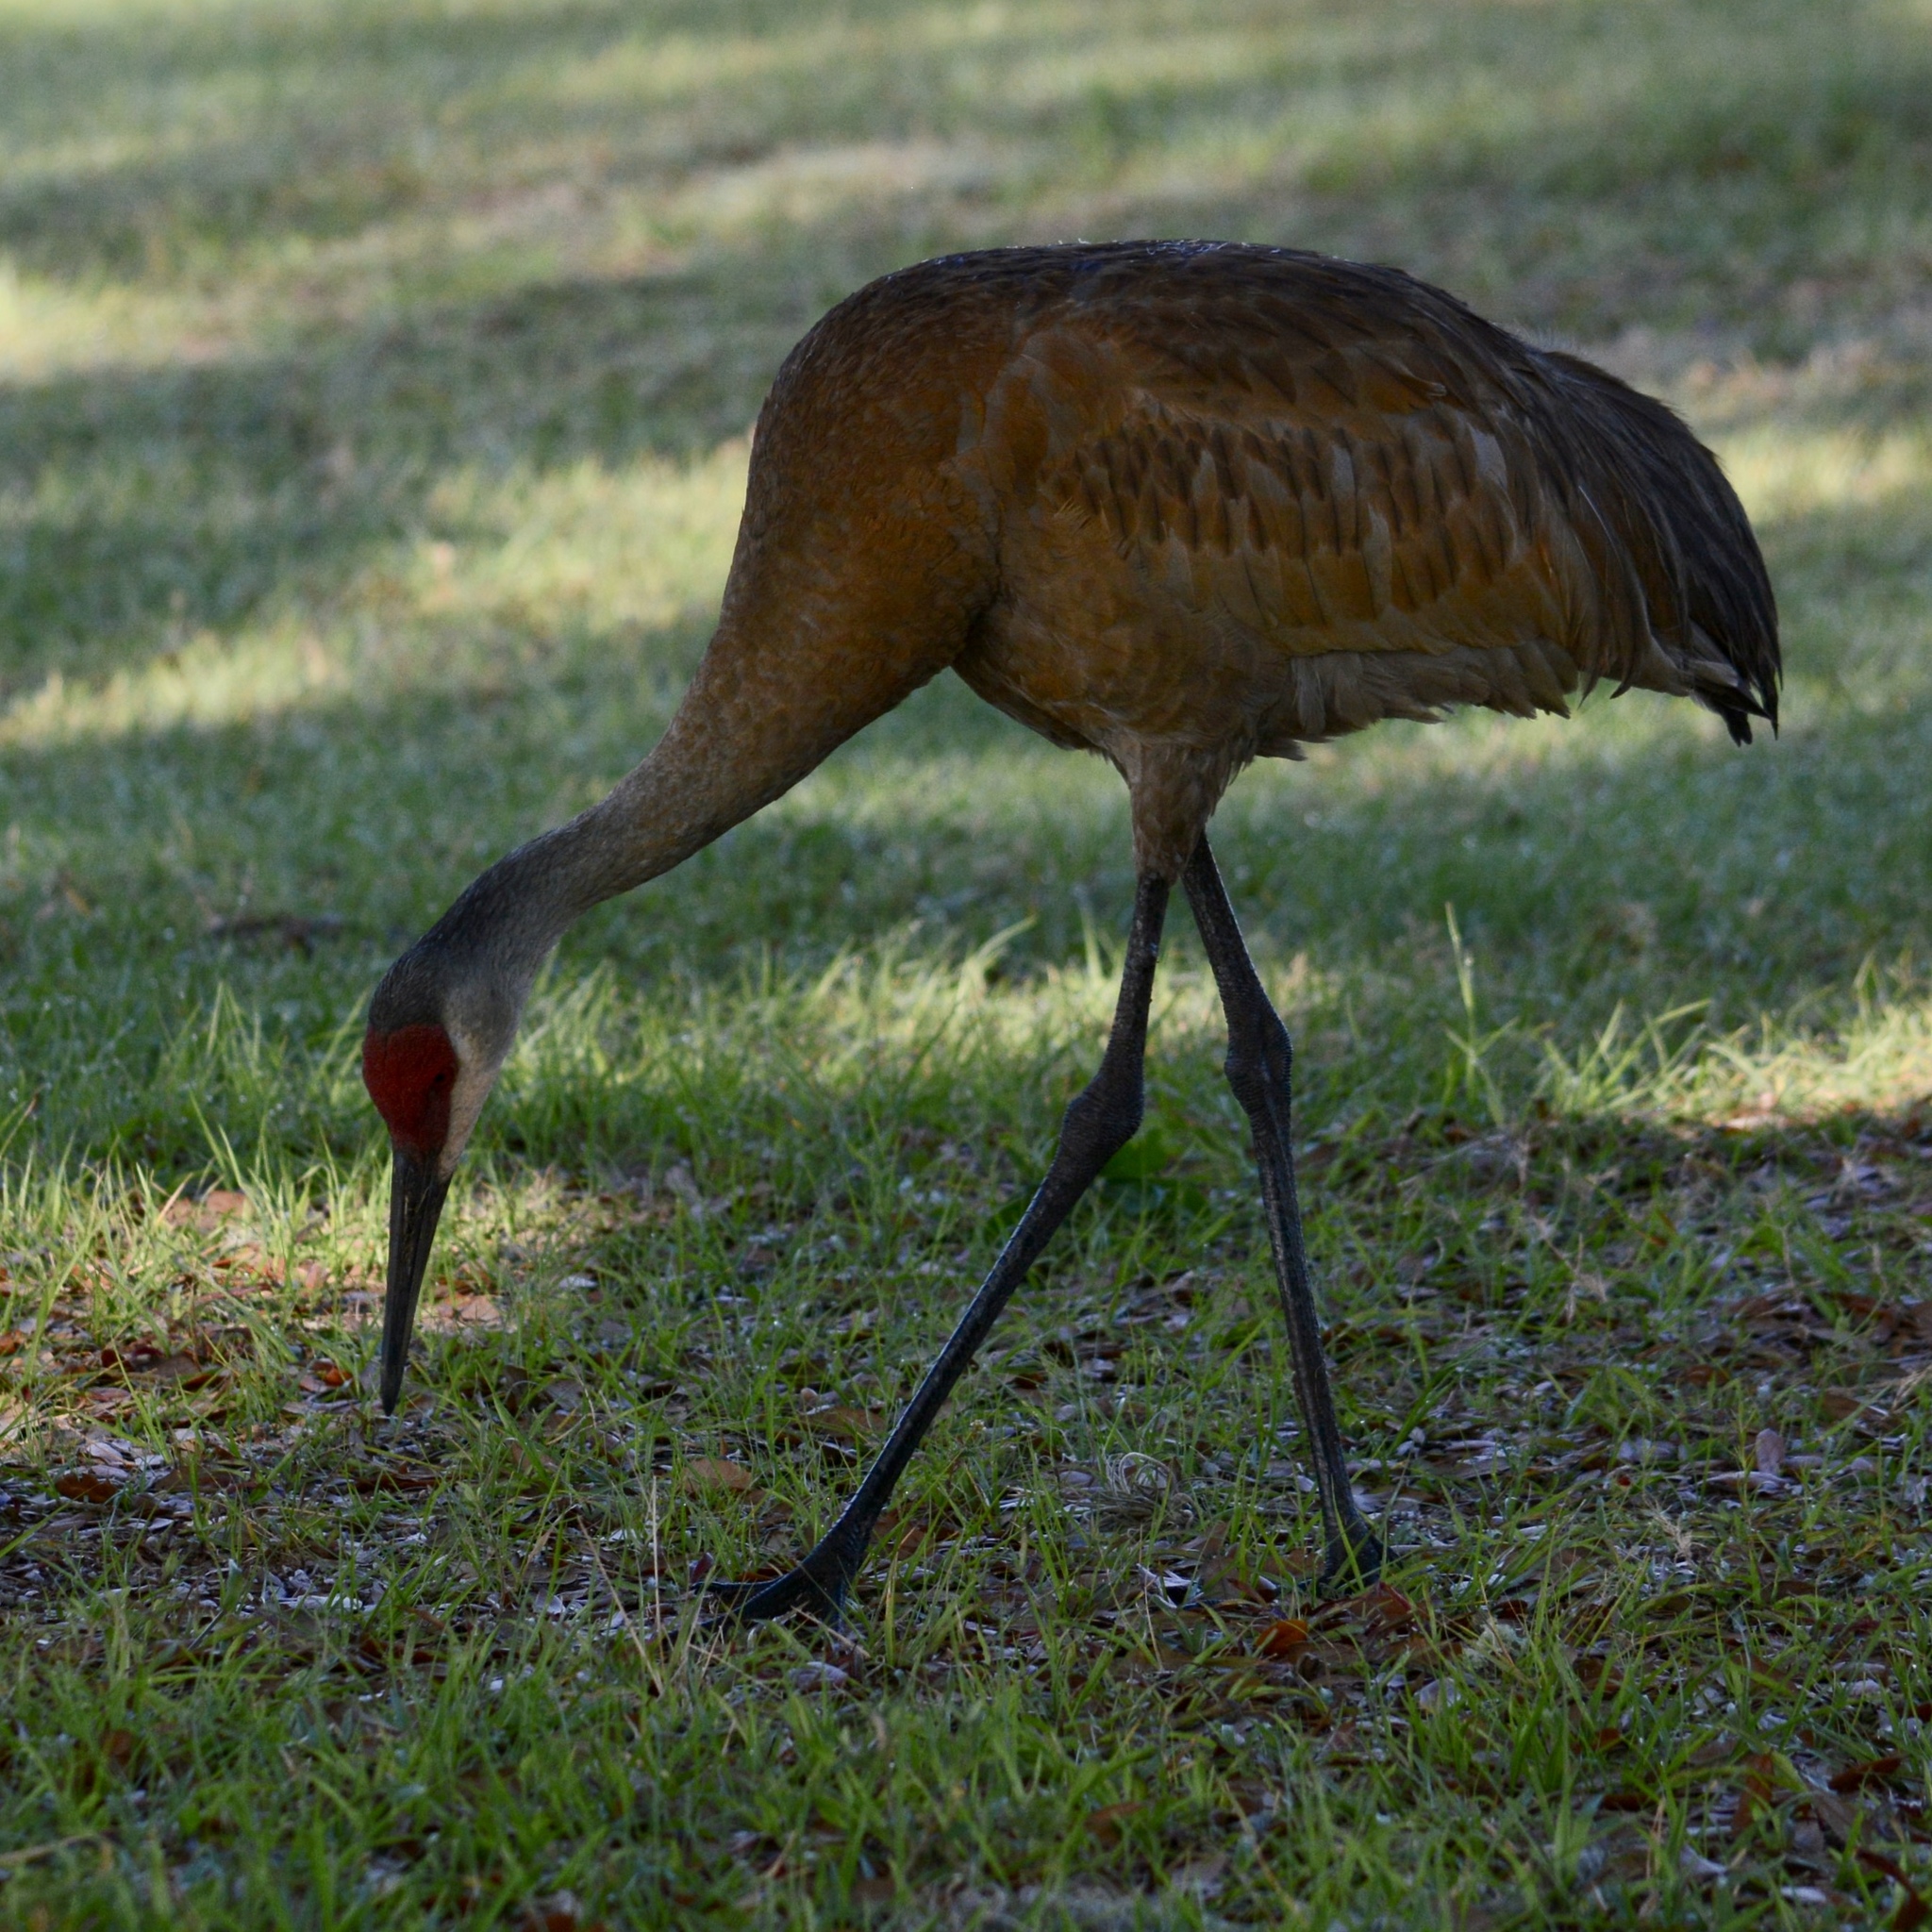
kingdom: Animalia
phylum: Chordata
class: Aves
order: Gruiformes
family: Gruidae
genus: Grus
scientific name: Grus canadensis
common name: Sandhill crane
